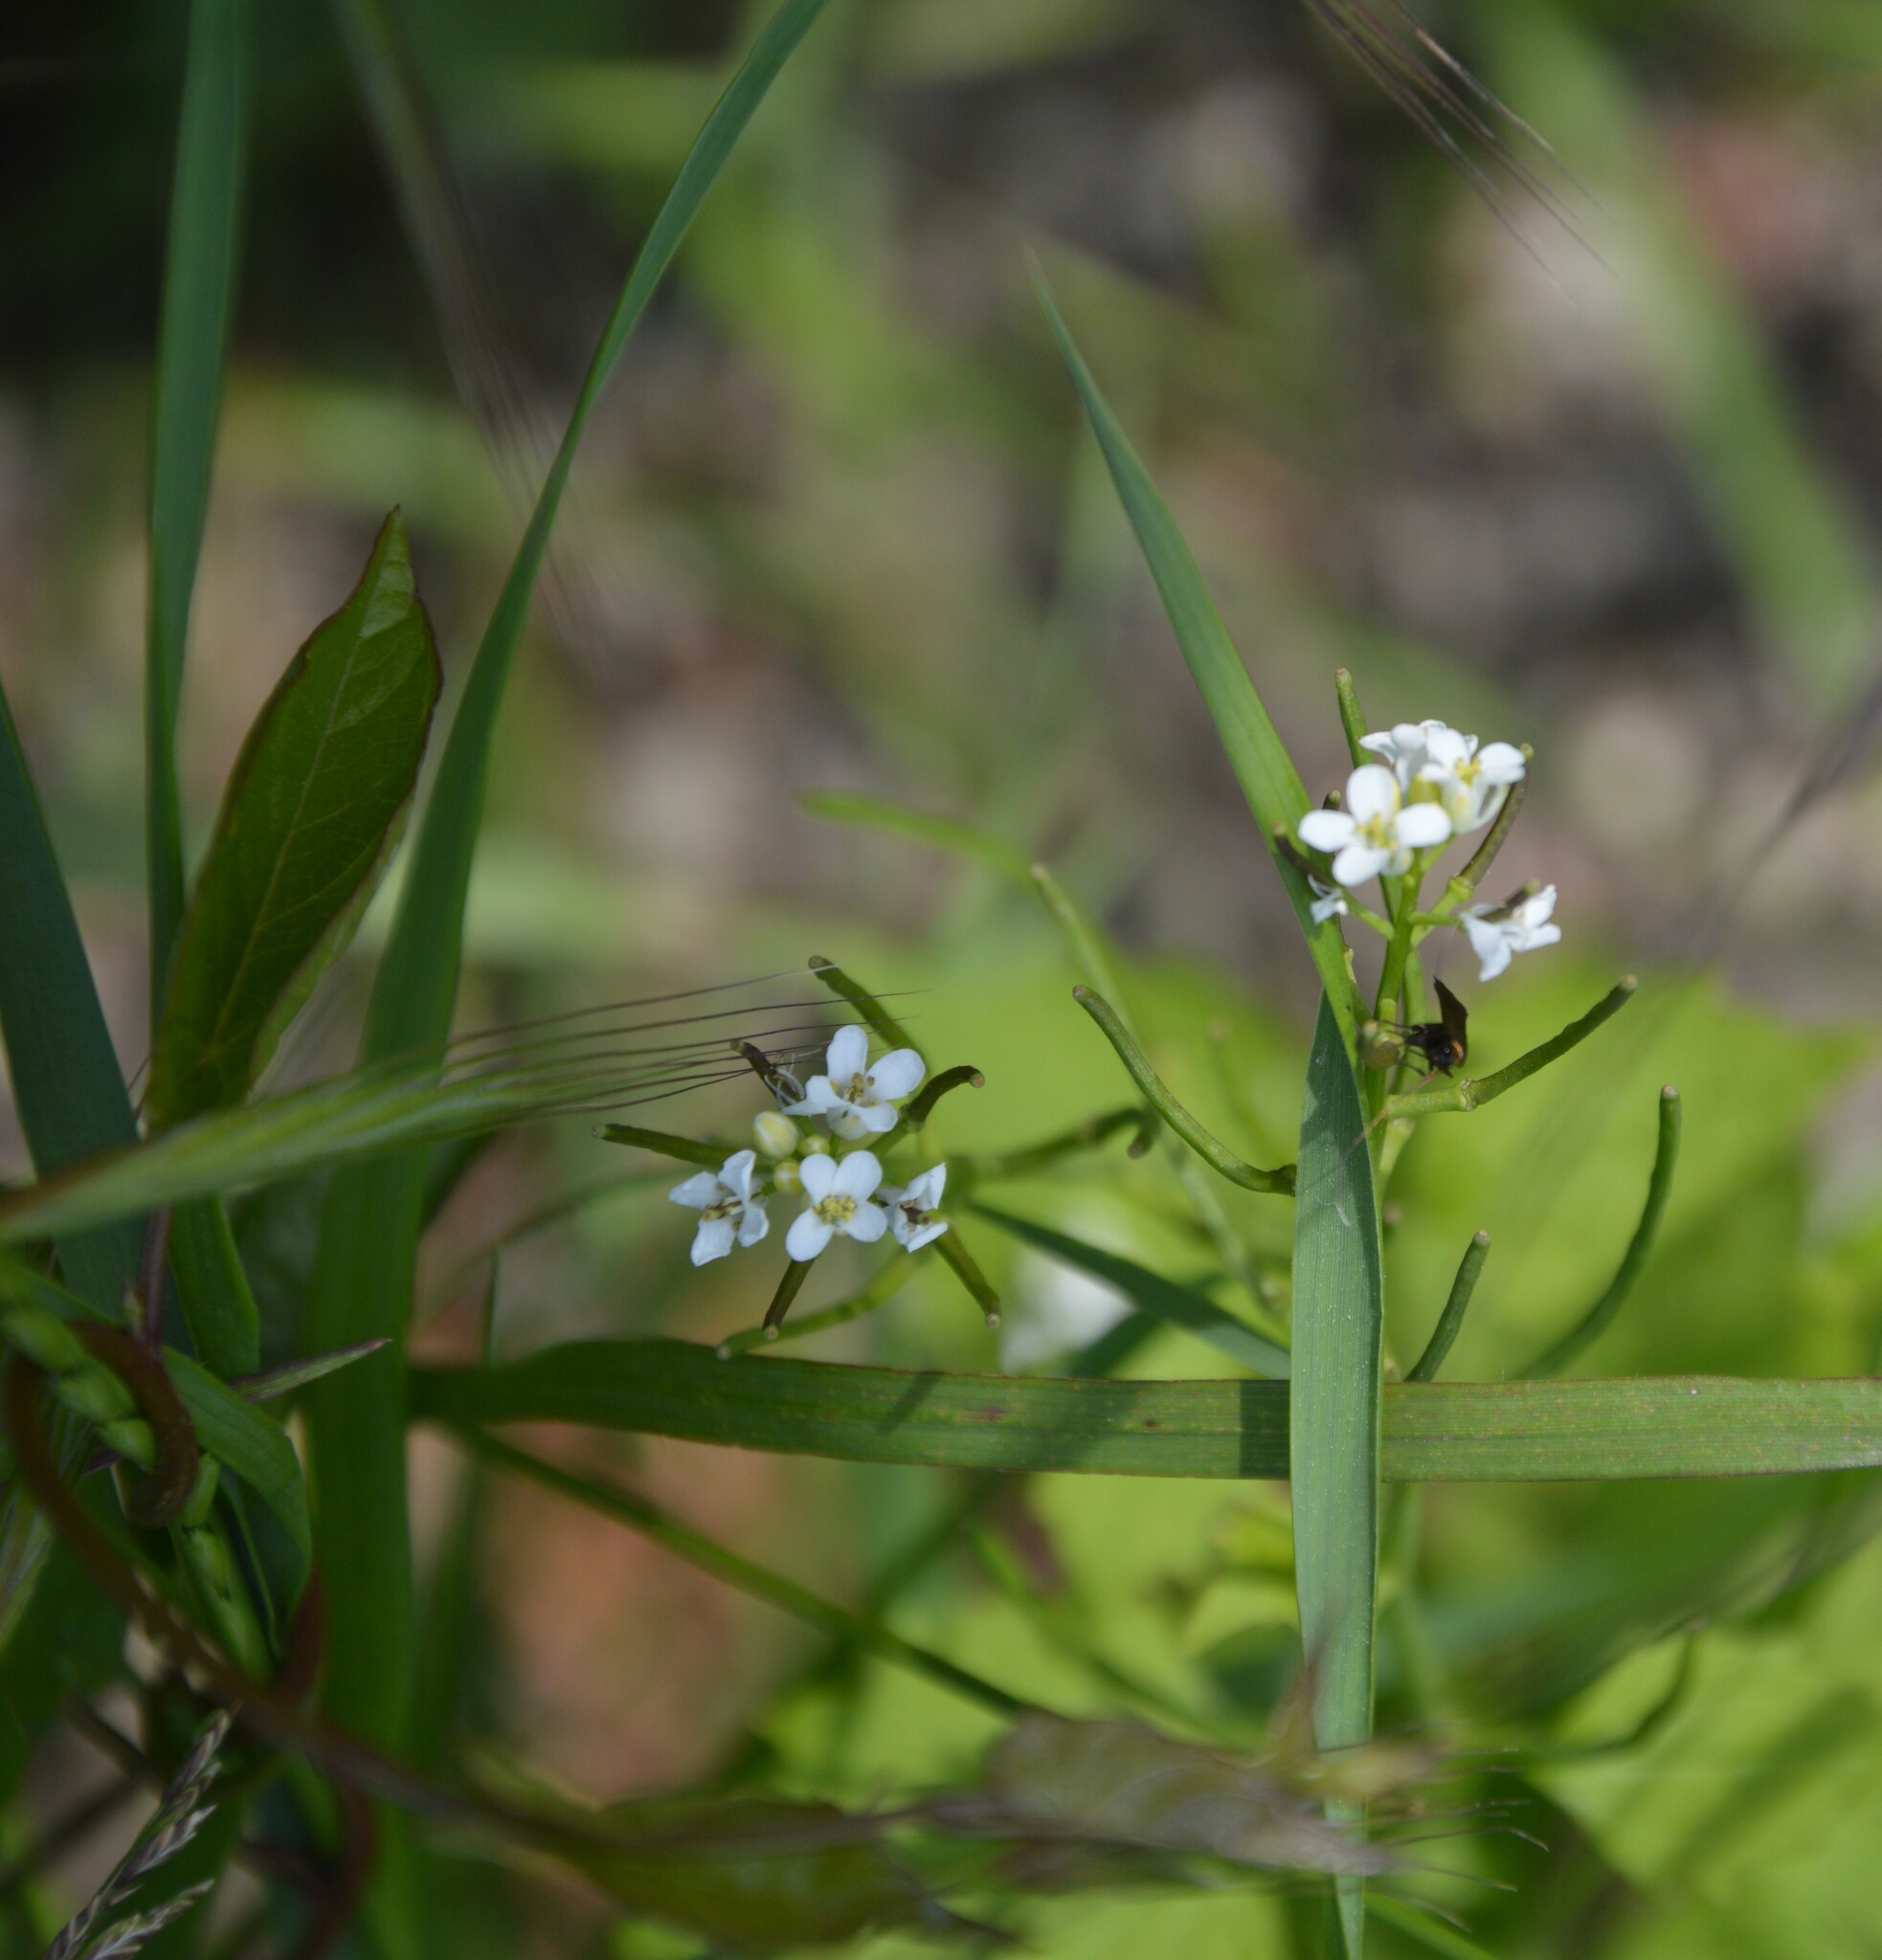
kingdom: Animalia
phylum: Arthropoda
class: Insecta
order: Lepidoptera
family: Adelidae
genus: Cauchas
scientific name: Cauchas rufimitrella
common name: Meadow long-horn
